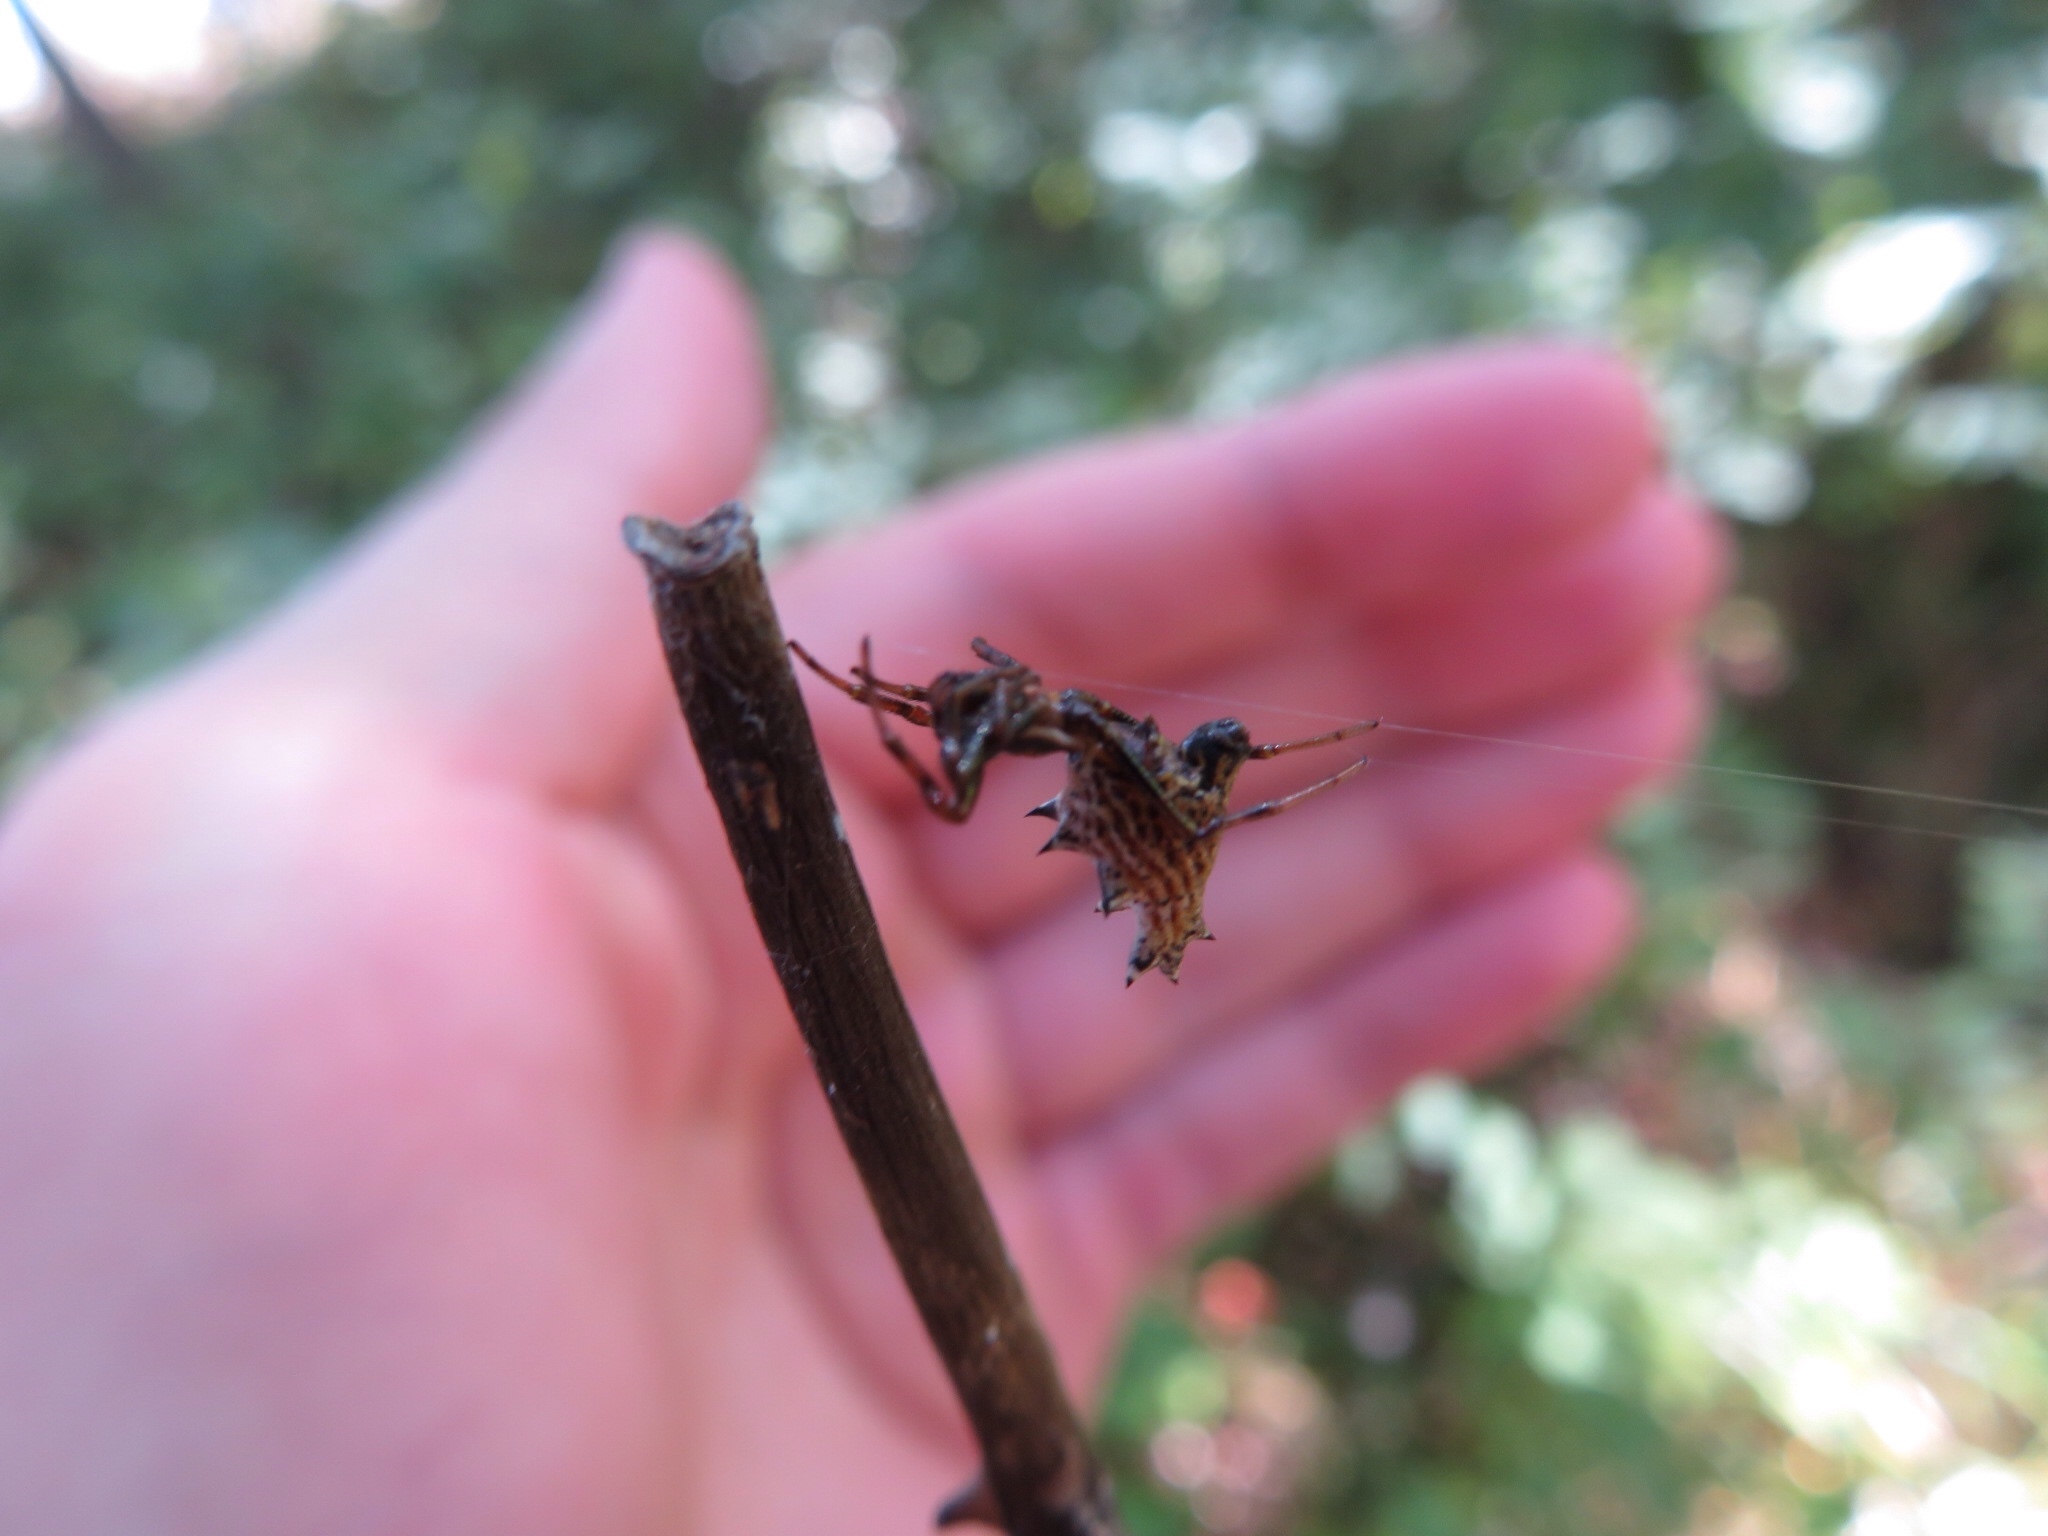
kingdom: Animalia
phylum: Arthropoda
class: Arachnida
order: Araneae
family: Araneidae
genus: Micrathena
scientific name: Micrathena gracilis
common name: Orb weavers
